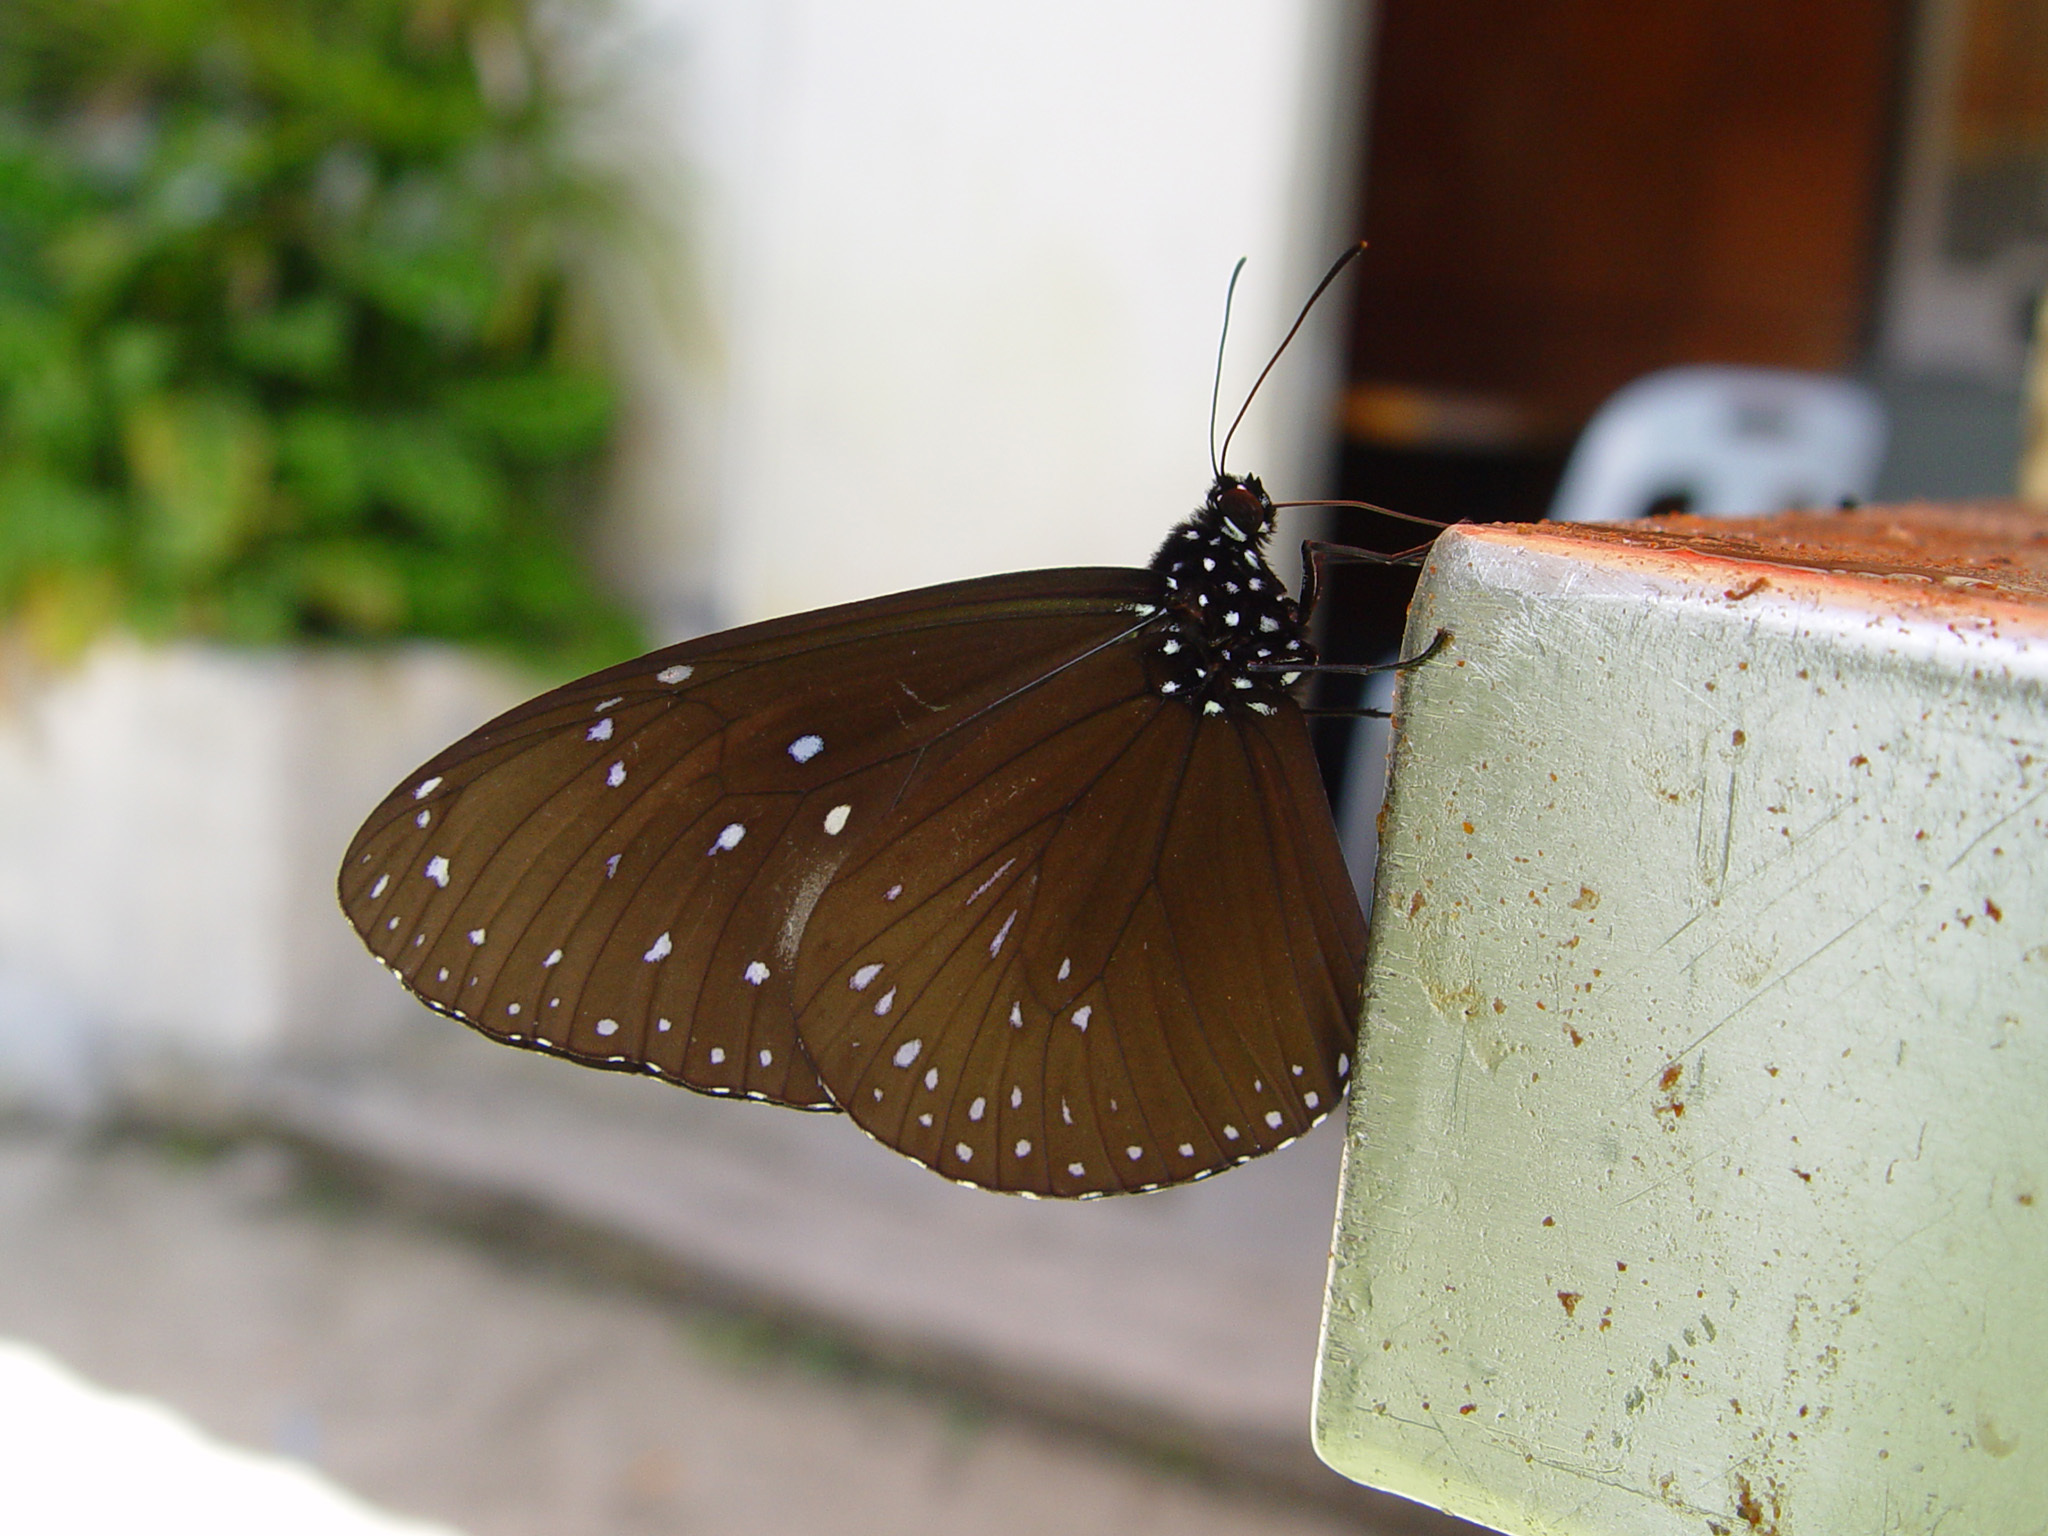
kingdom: Animalia
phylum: Arthropoda
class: Insecta
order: Lepidoptera
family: Nymphalidae
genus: Euploea
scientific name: Euploea mulciber
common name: Striped blue crow butterfly
